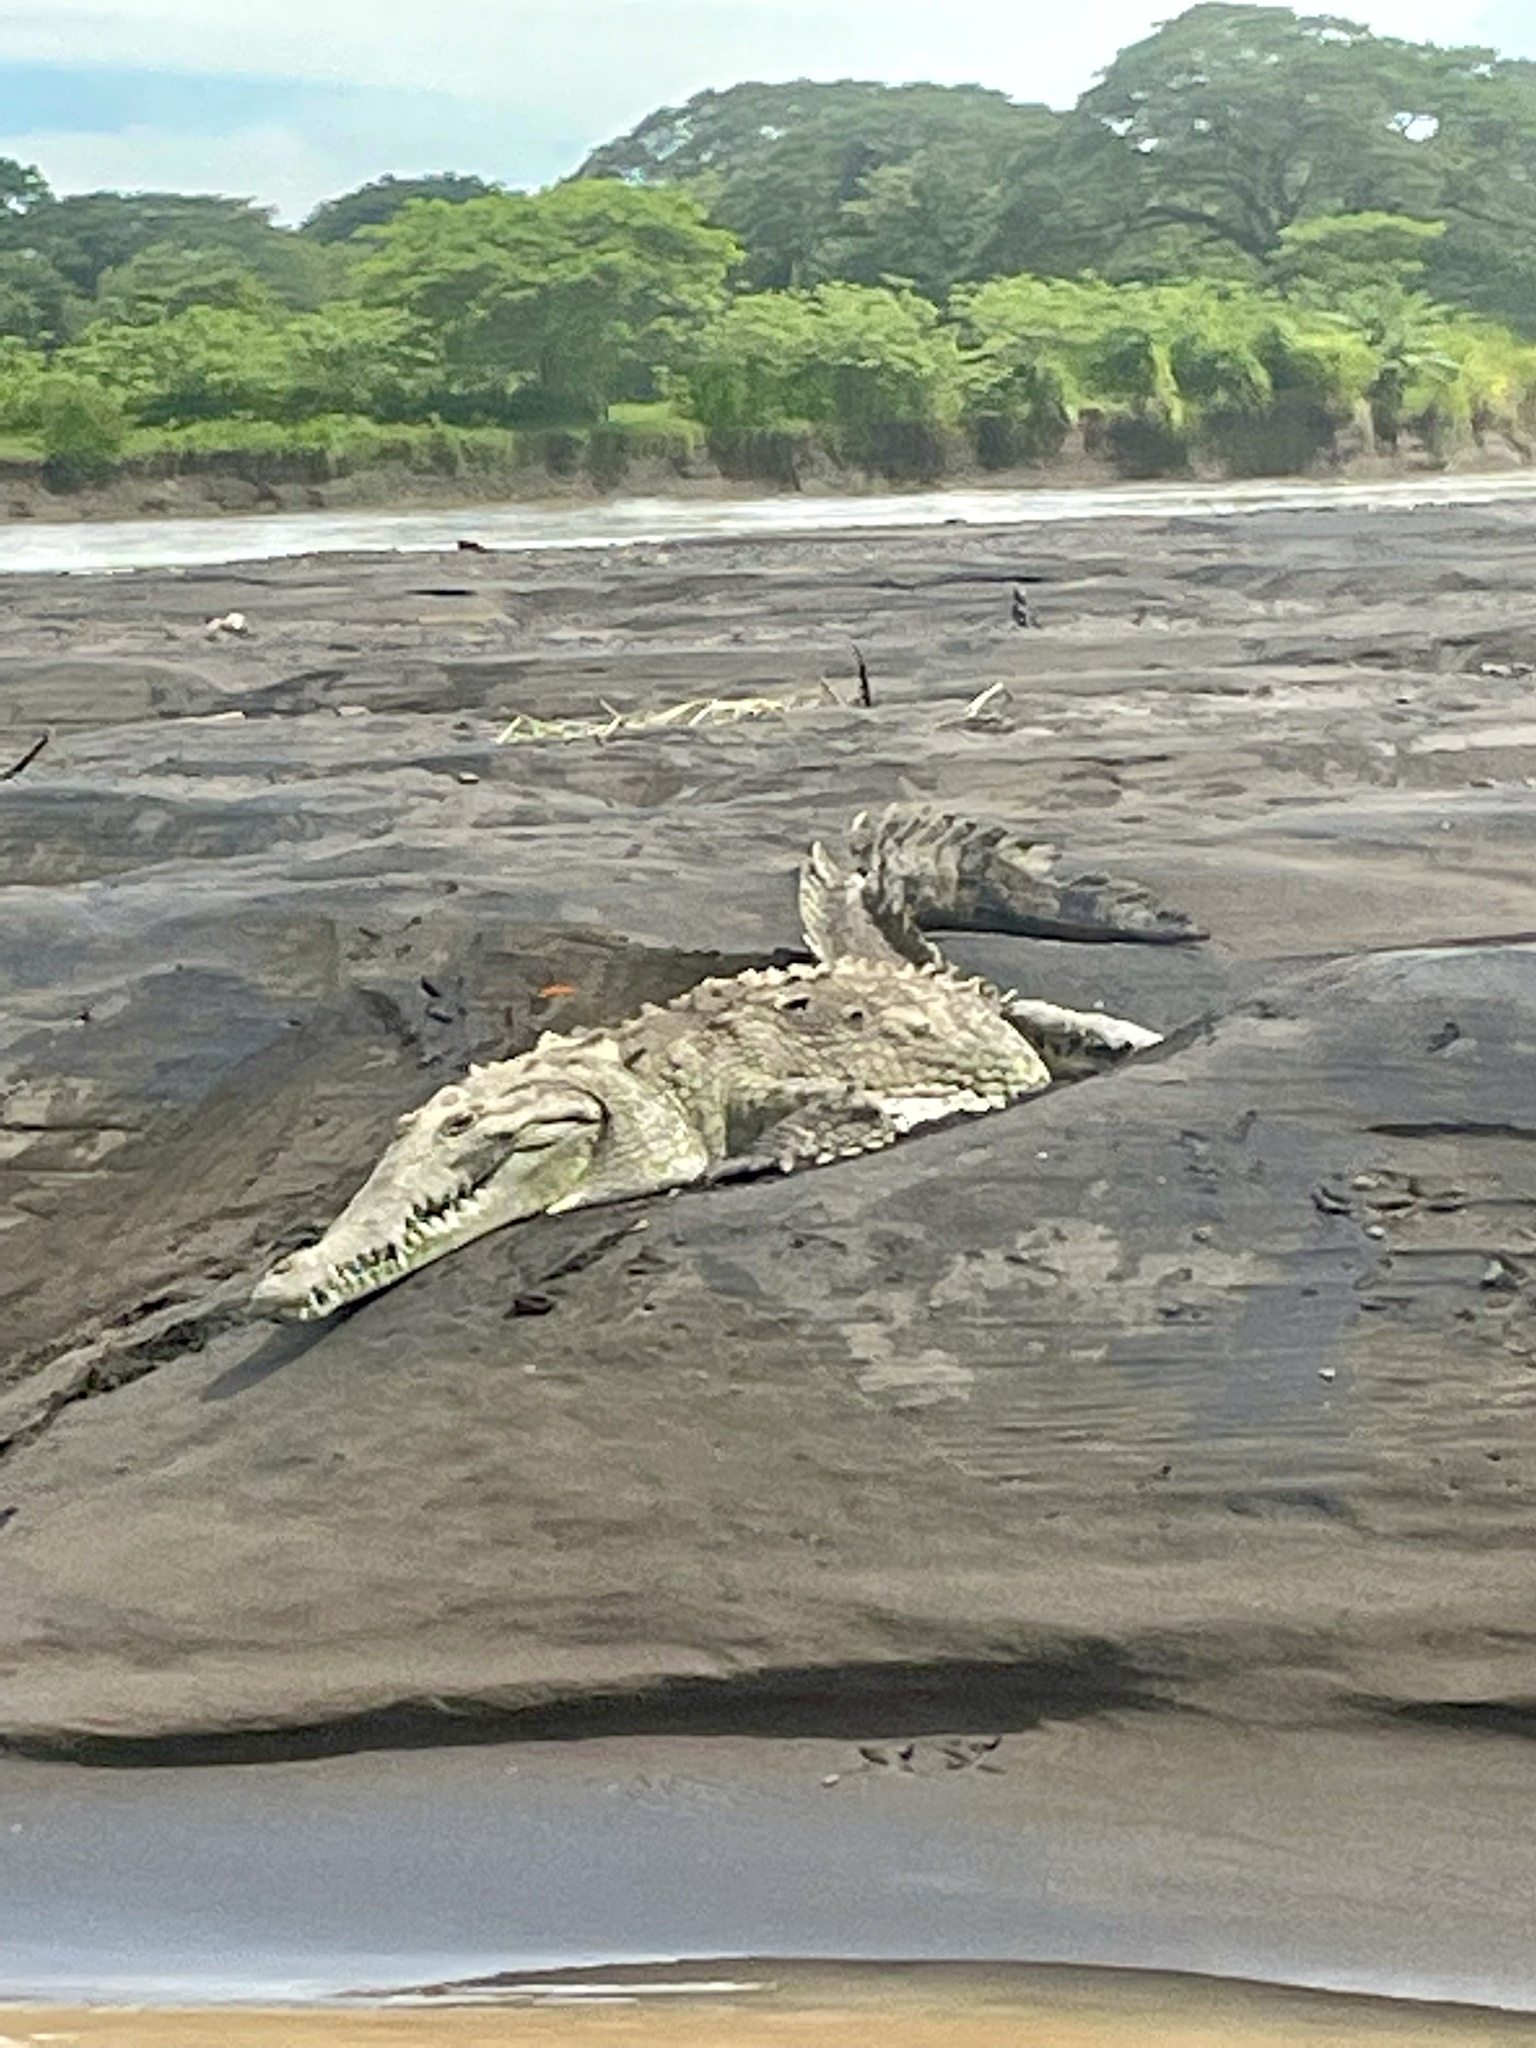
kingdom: Animalia
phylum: Chordata
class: Crocodylia
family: Crocodylidae
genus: Crocodylus
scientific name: Crocodylus acutus
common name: American crocodile
